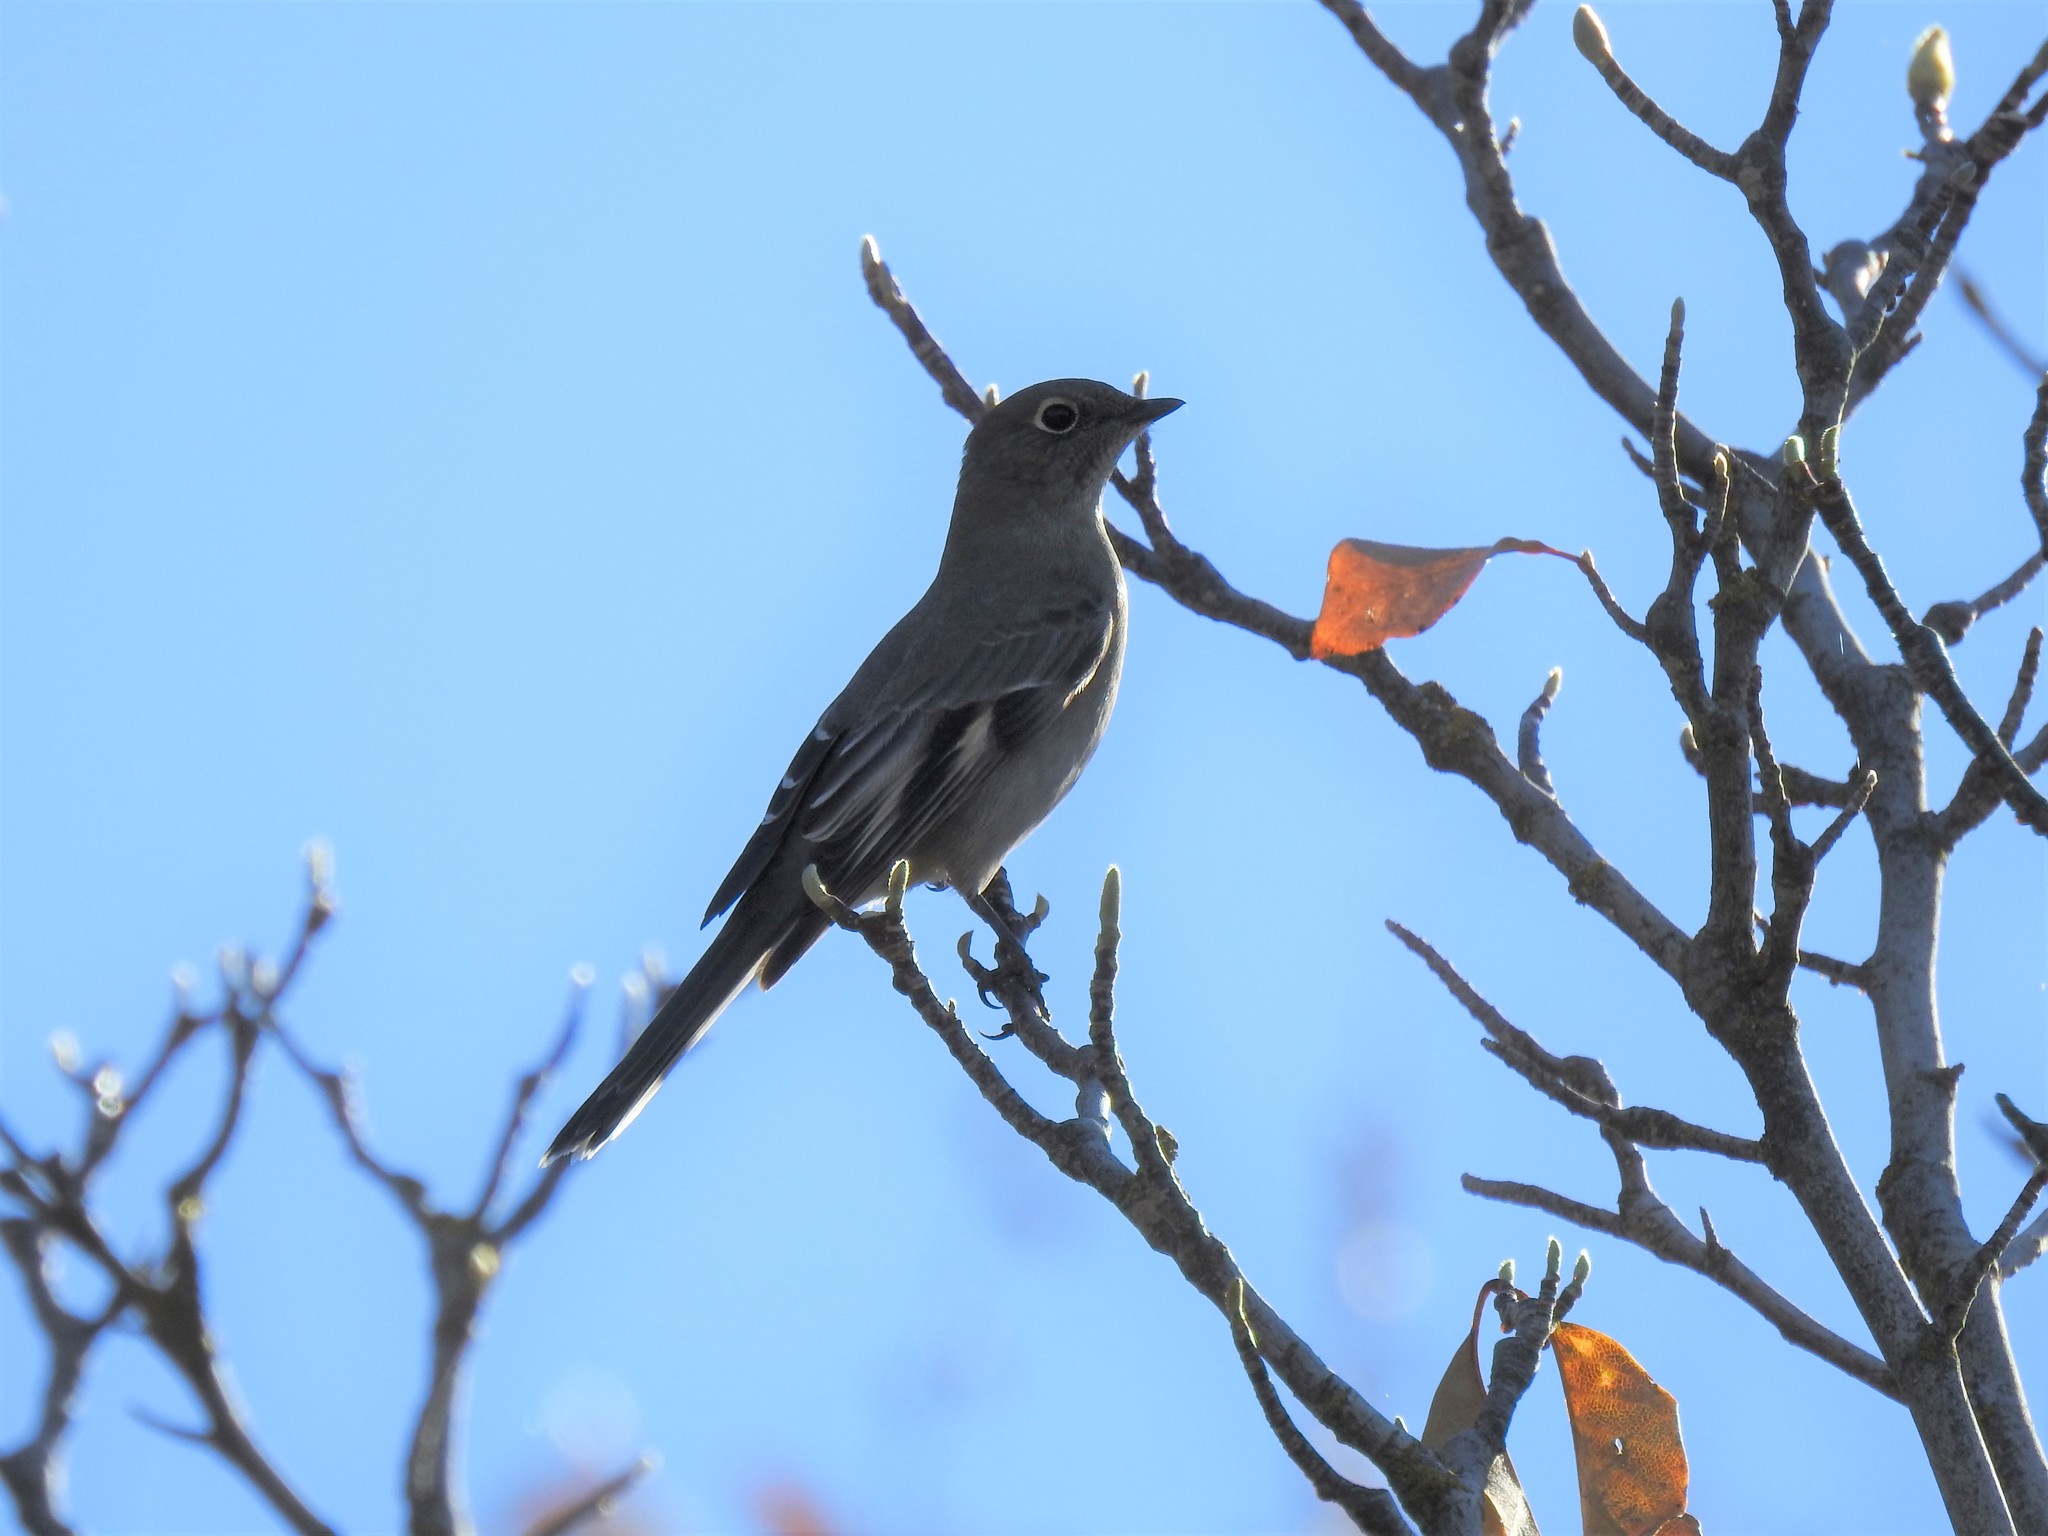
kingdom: Animalia
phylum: Chordata
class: Aves
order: Passeriformes
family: Turdidae
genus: Myadestes
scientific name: Myadestes townsendi
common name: Townsend's solitaire
